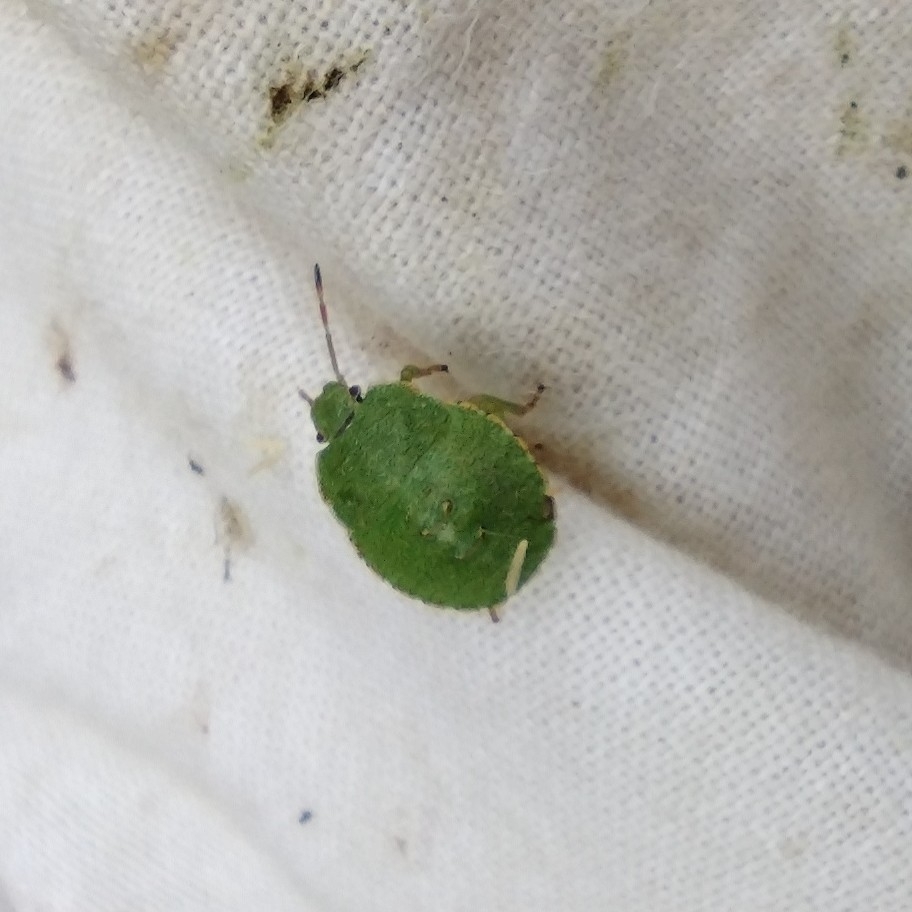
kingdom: Animalia
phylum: Arthropoda
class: Insecta
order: Hemiptera
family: Pentatomidae
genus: Palomena
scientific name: Palomena prasina
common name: Green shieldbug
